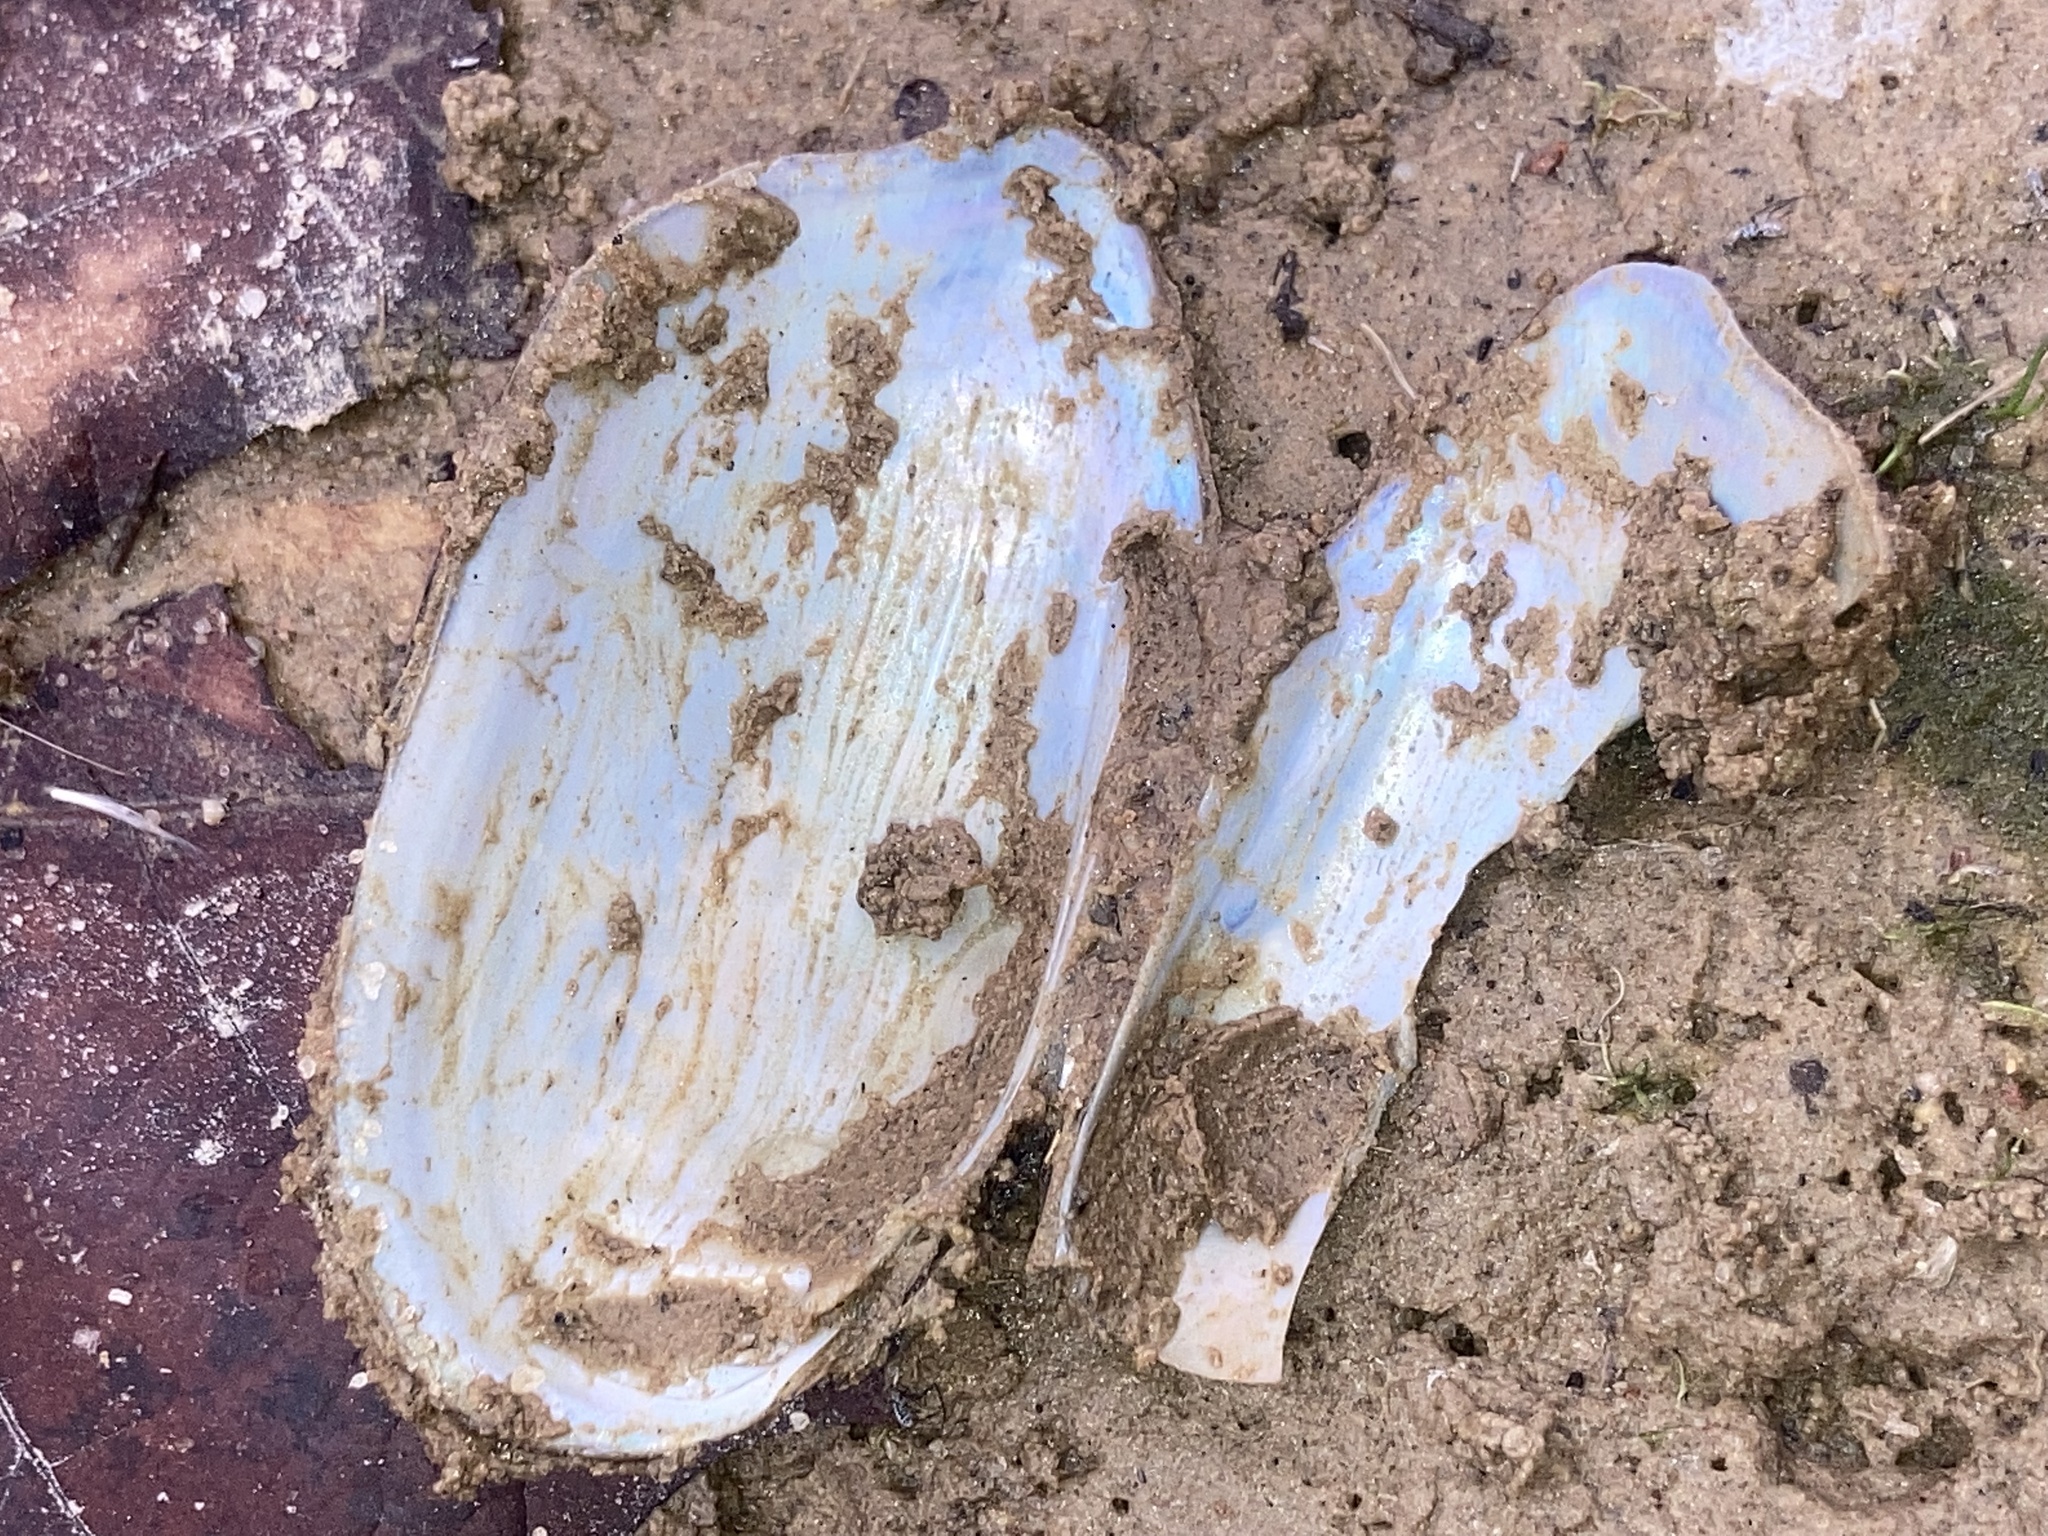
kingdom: Animalia
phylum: Mollusca
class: Bivalvia
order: Unionida
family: Unionidae
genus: Sagittunio
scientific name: Sagittunio subrostratus
